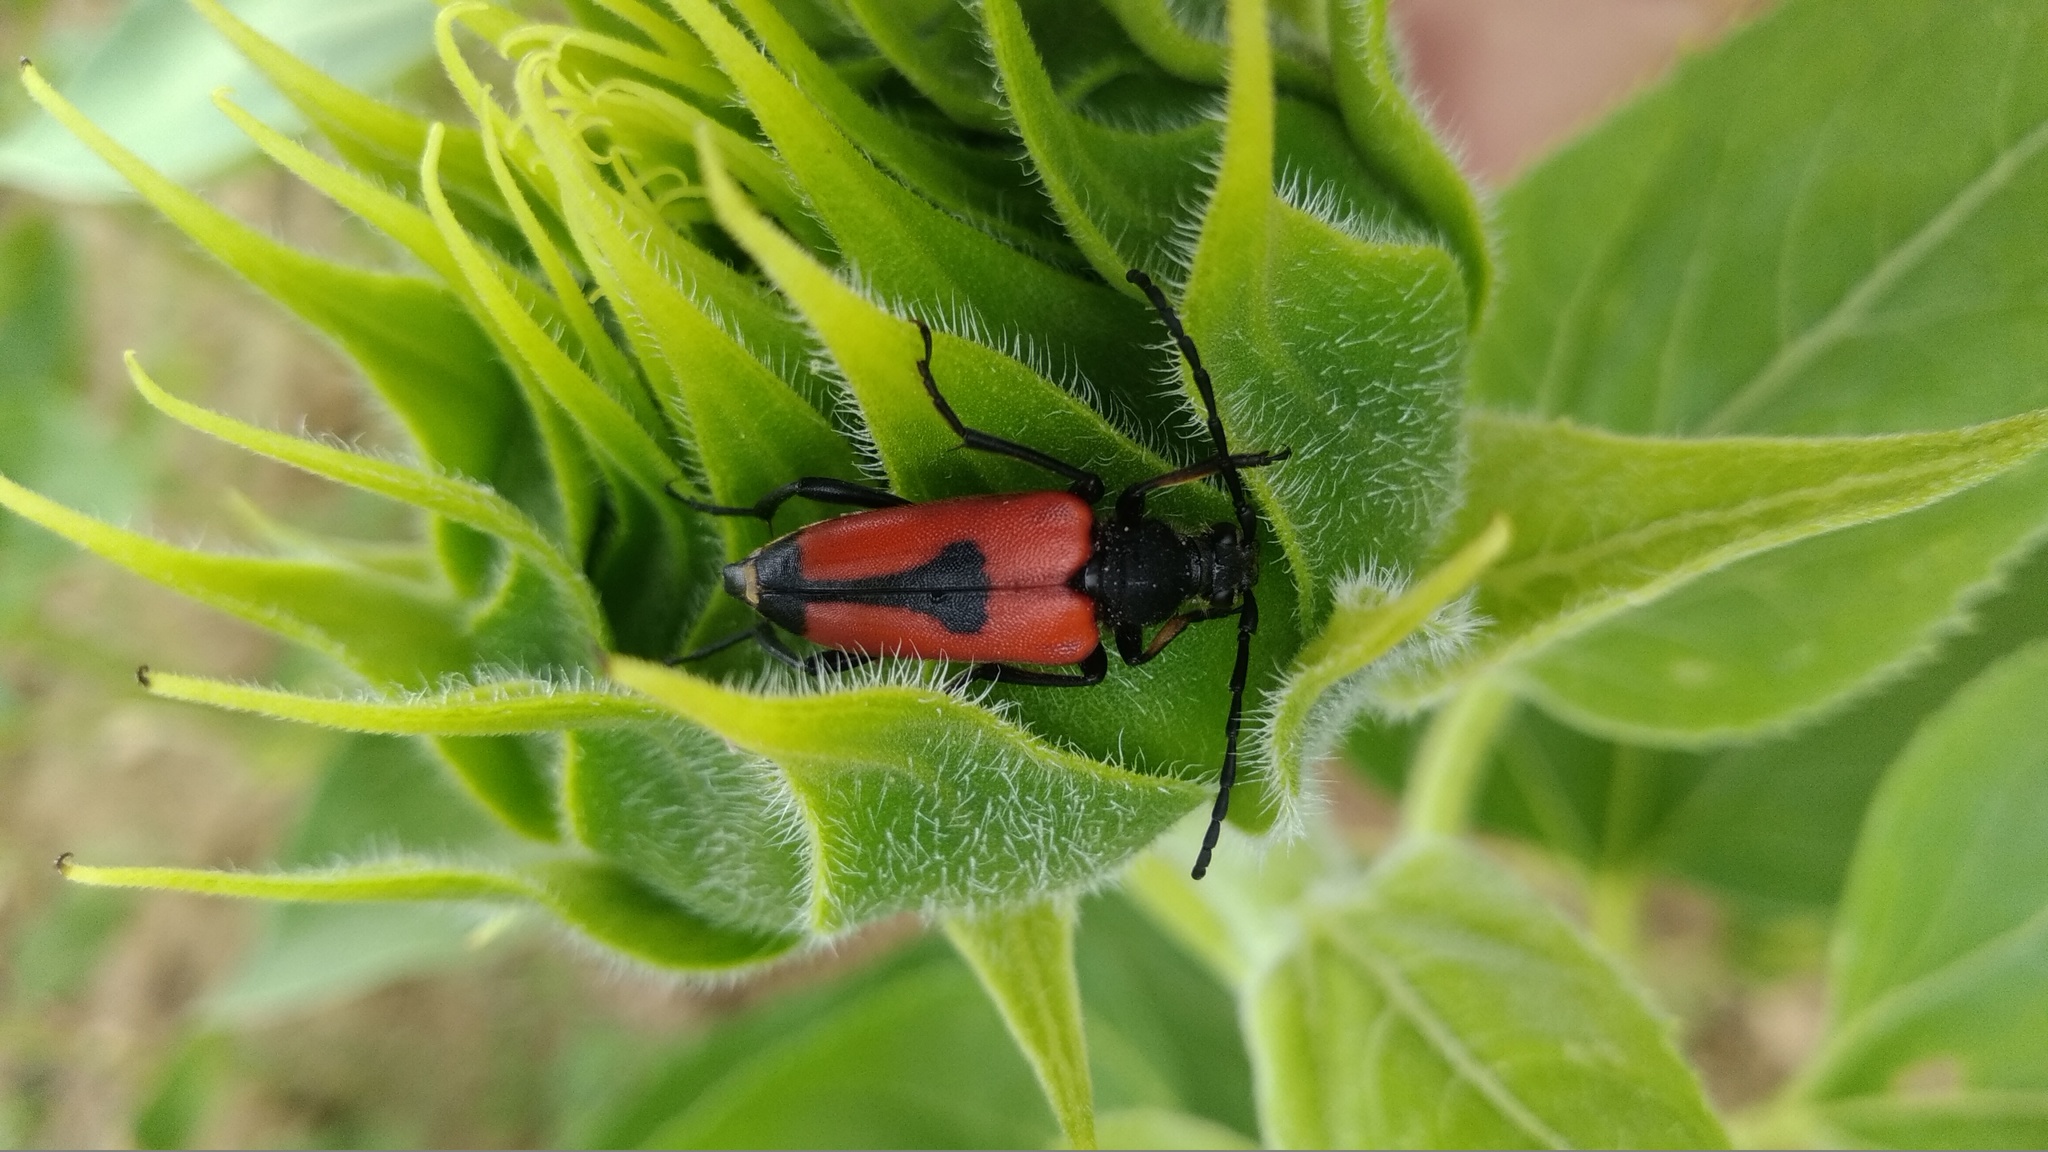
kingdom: Animalia
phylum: Arthropoda
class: Insecta
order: Coleoptera
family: Cerambycidae
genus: Stictoleptura
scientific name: Stictoleptura cordigera
